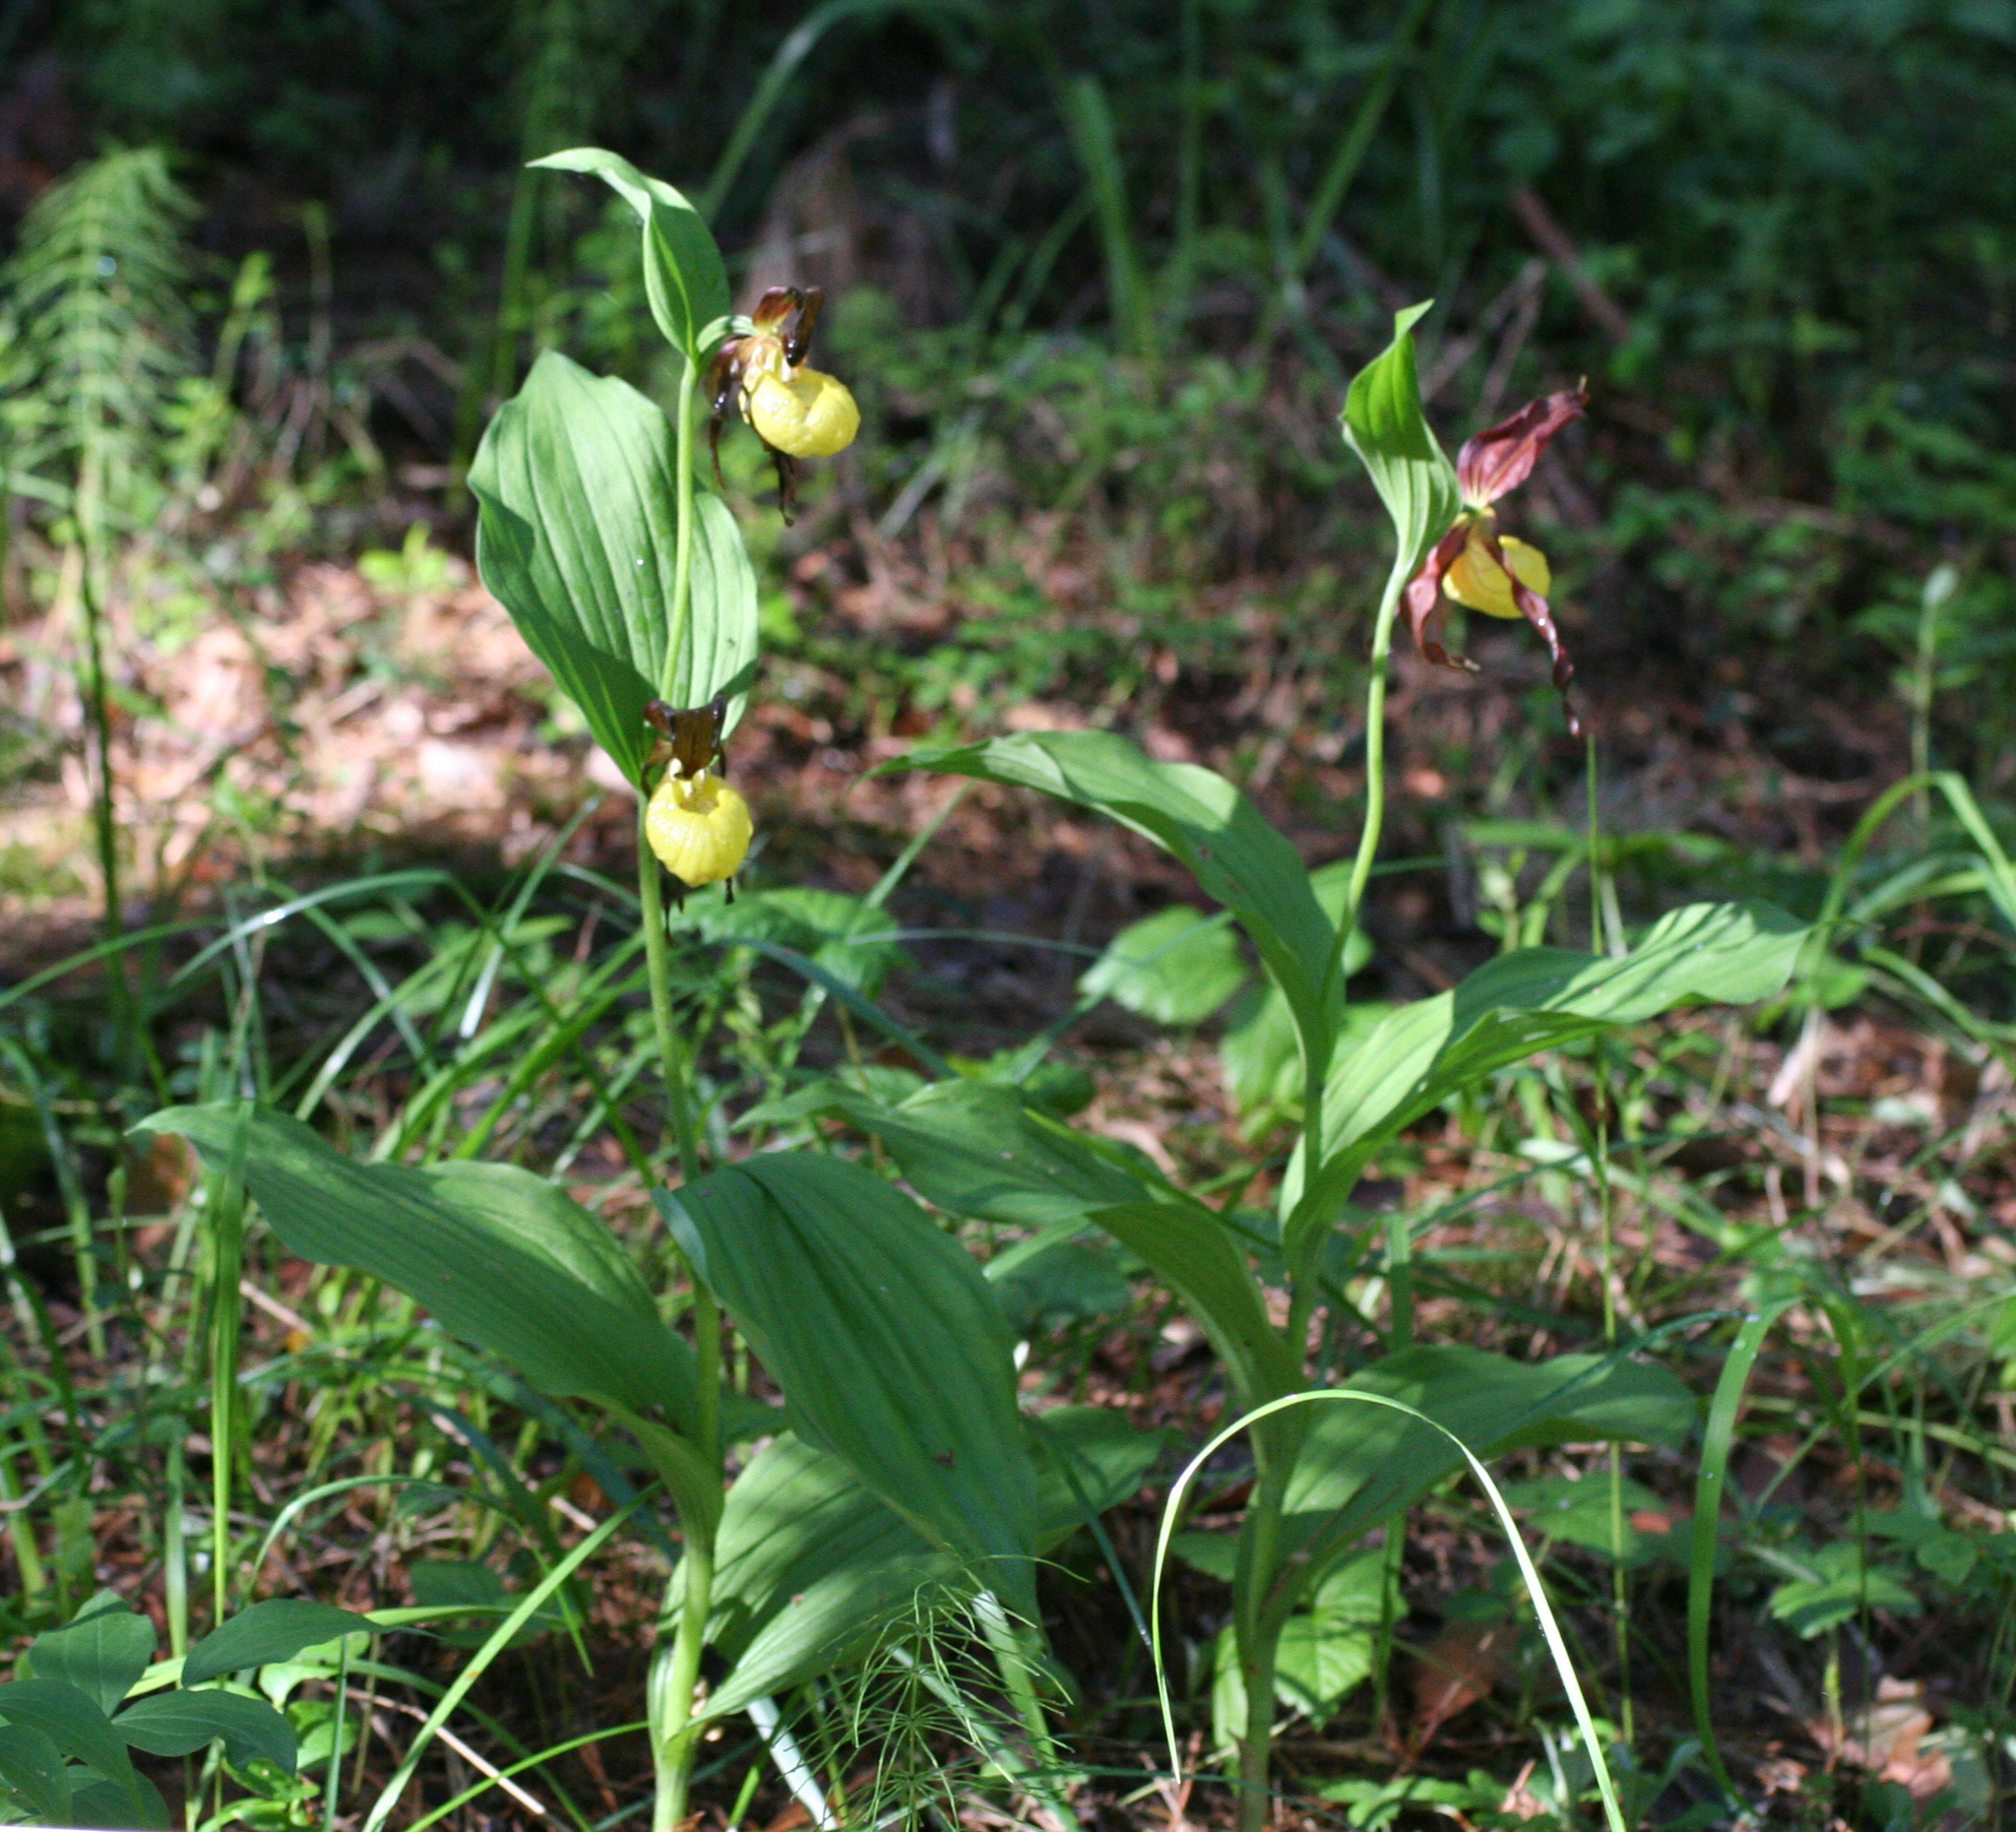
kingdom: Plantae
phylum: Tracheophyta
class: Liliopsida
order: Asparagales
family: Orchidaceae
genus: Cypripedium
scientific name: Cypripedium calceolus
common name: Lady's-slipper
